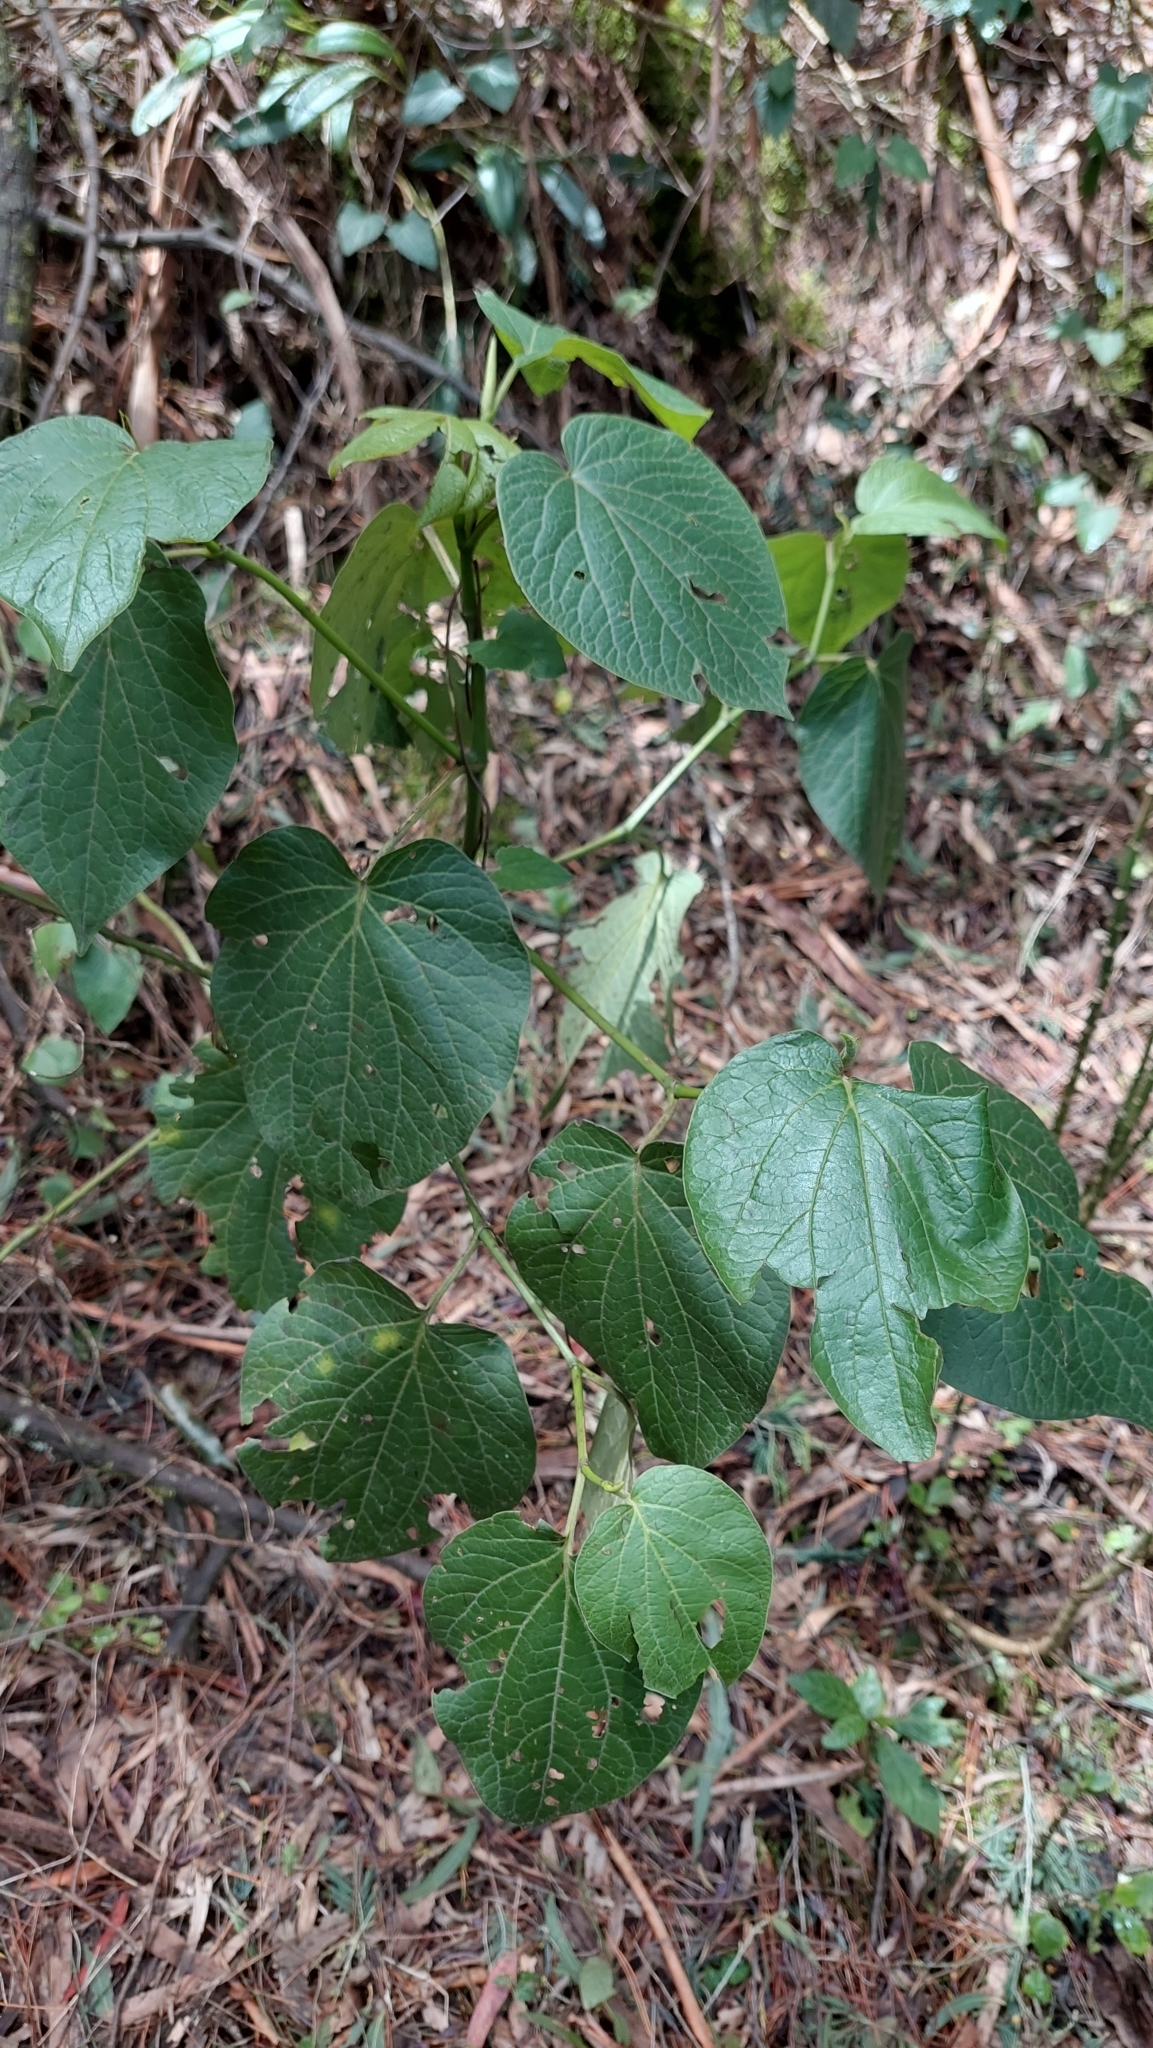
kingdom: Plantae
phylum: Tracheophyta
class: Magnoliopsida
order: Piperales
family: Piperaceae
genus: Piper
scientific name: Piper barbatum
